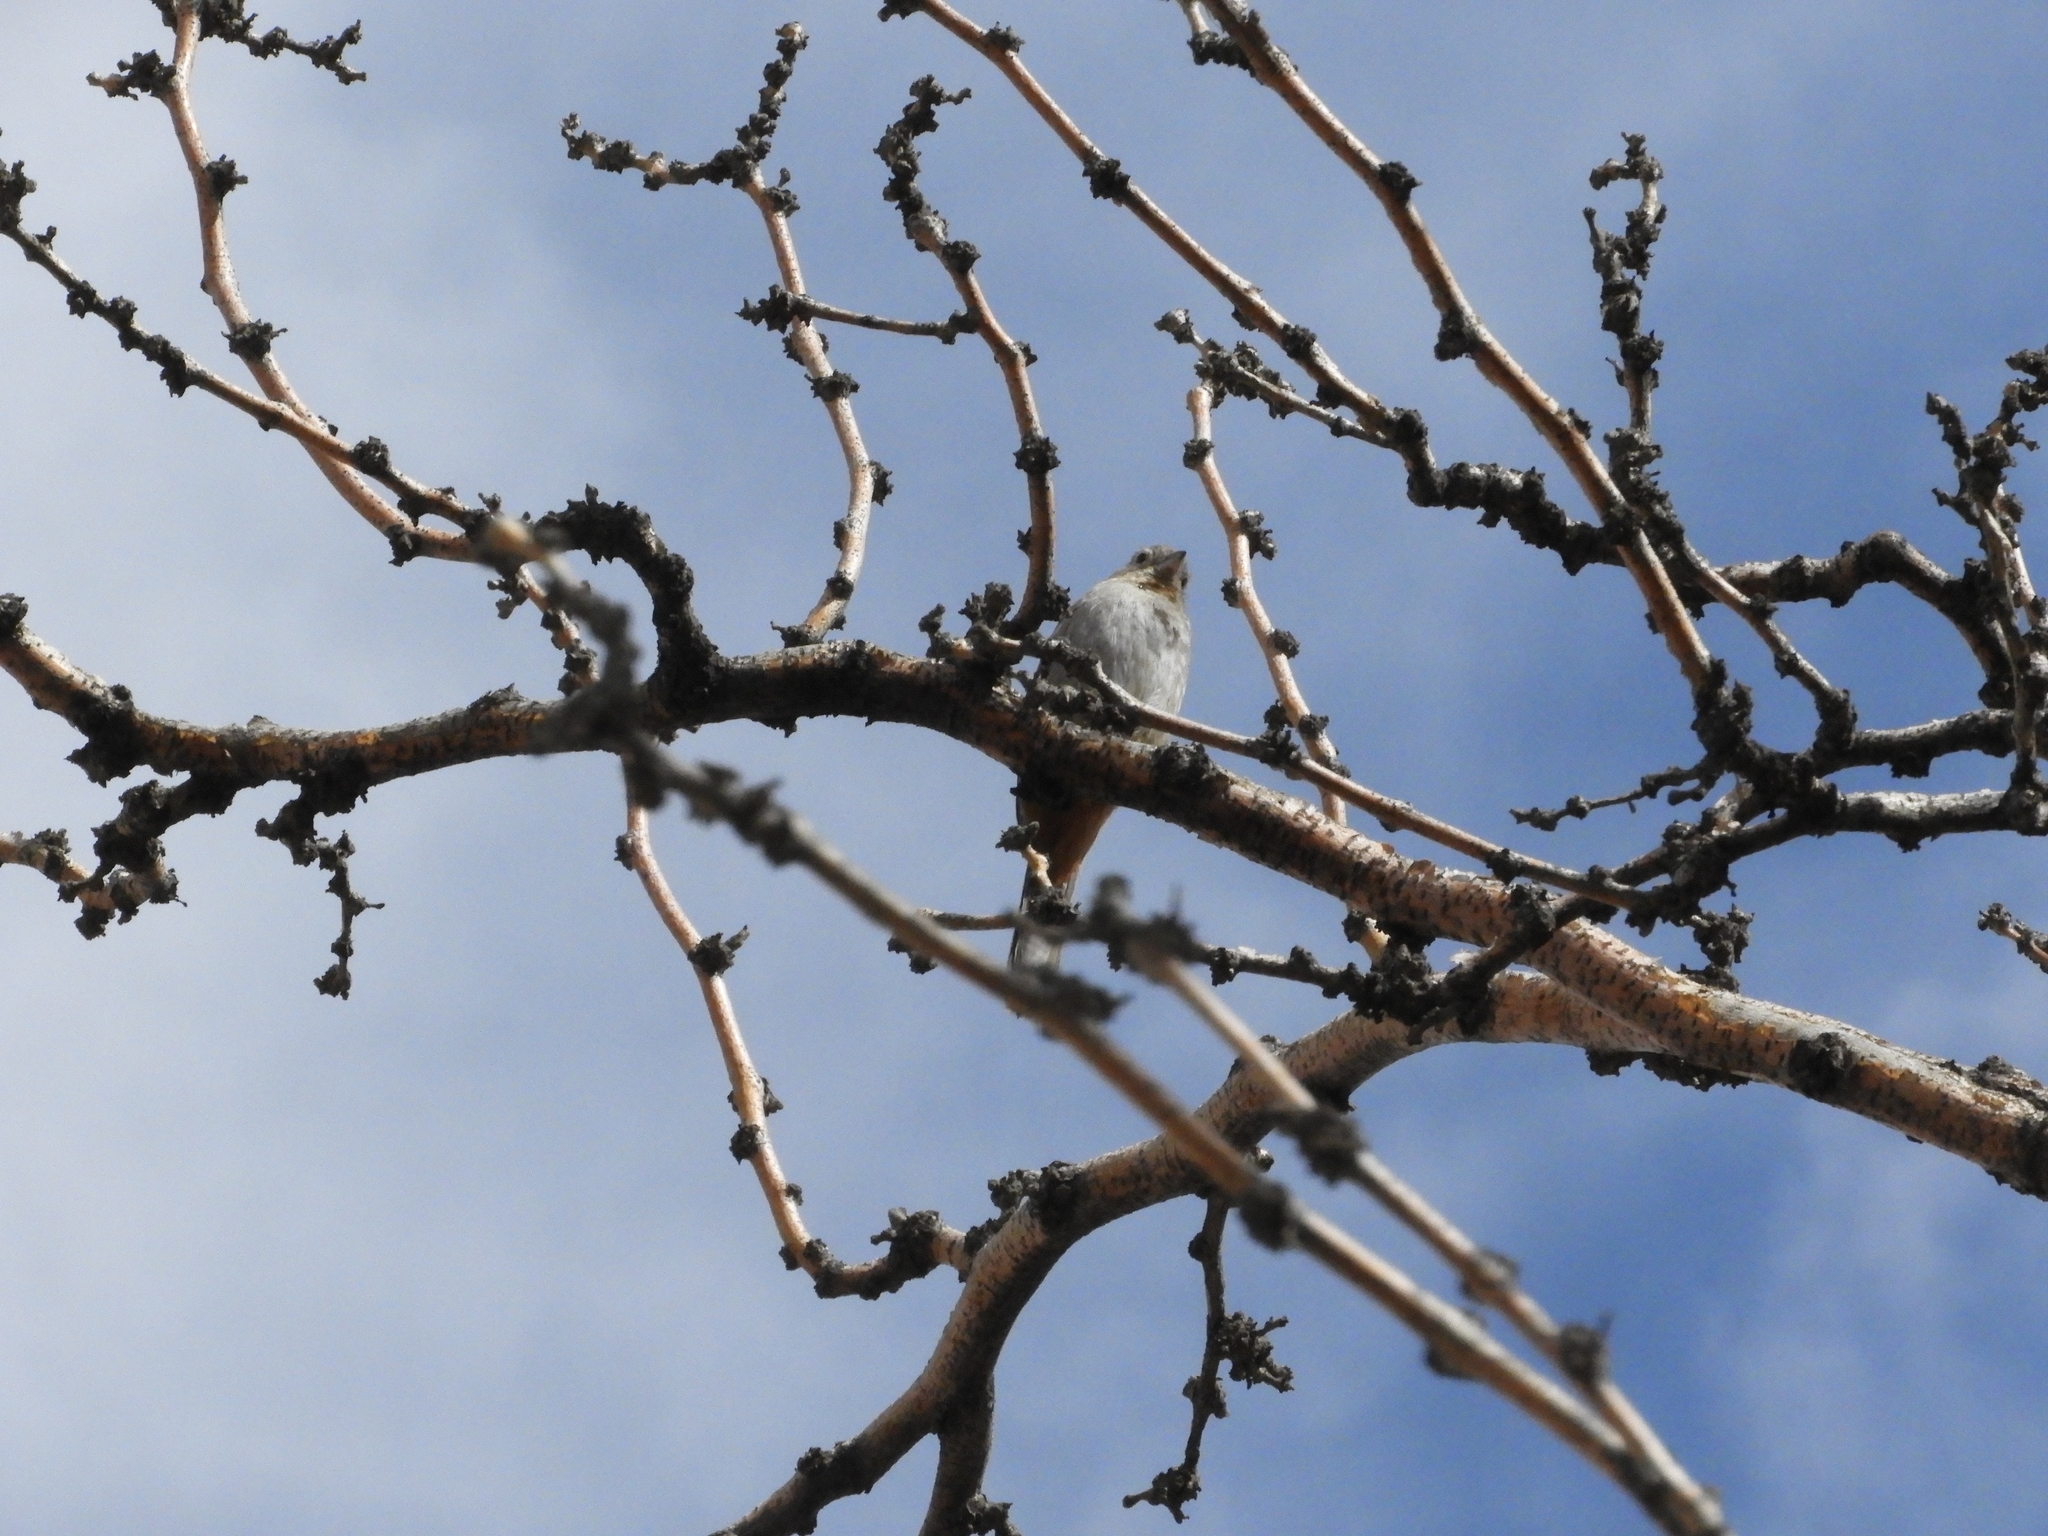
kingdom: Animalia
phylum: Chordata
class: Aves
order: Passeriformes
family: Passerellidae
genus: Melozone
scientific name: Melozone fusca
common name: Canyon towhee
